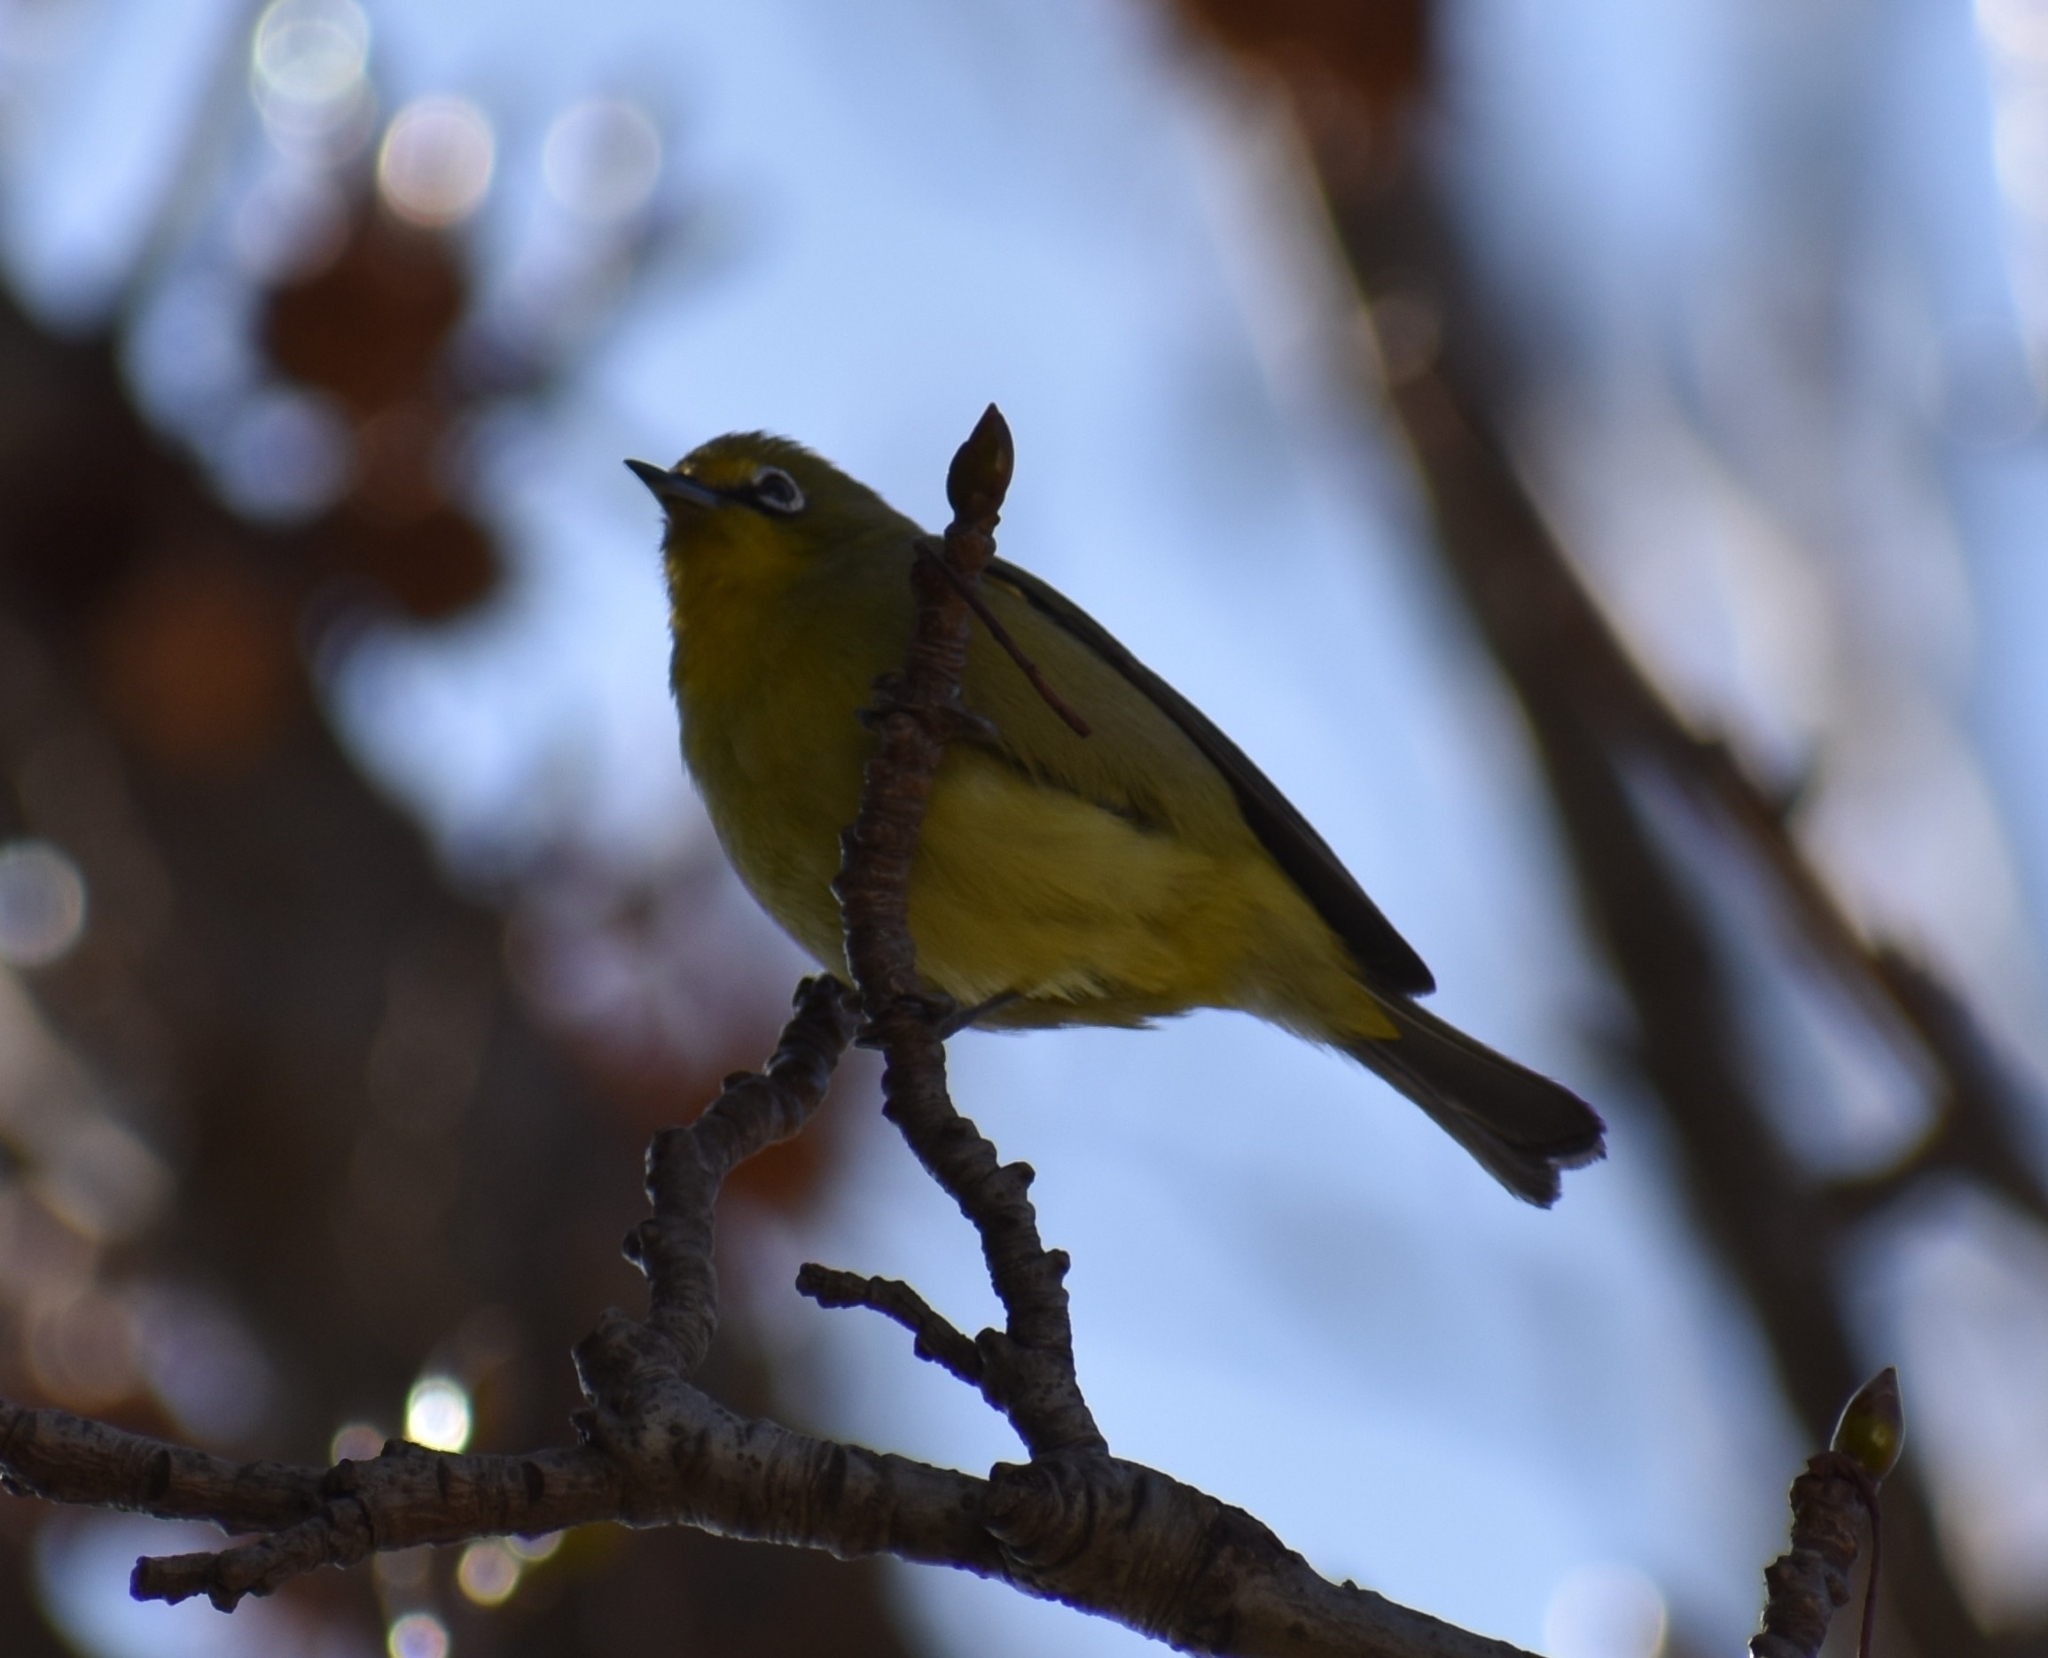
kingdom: Animalia
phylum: Chordata
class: Aves
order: Passeriformes
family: Zosteropidae
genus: Zosterops
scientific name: Zosterops virens
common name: Cape white-eye
